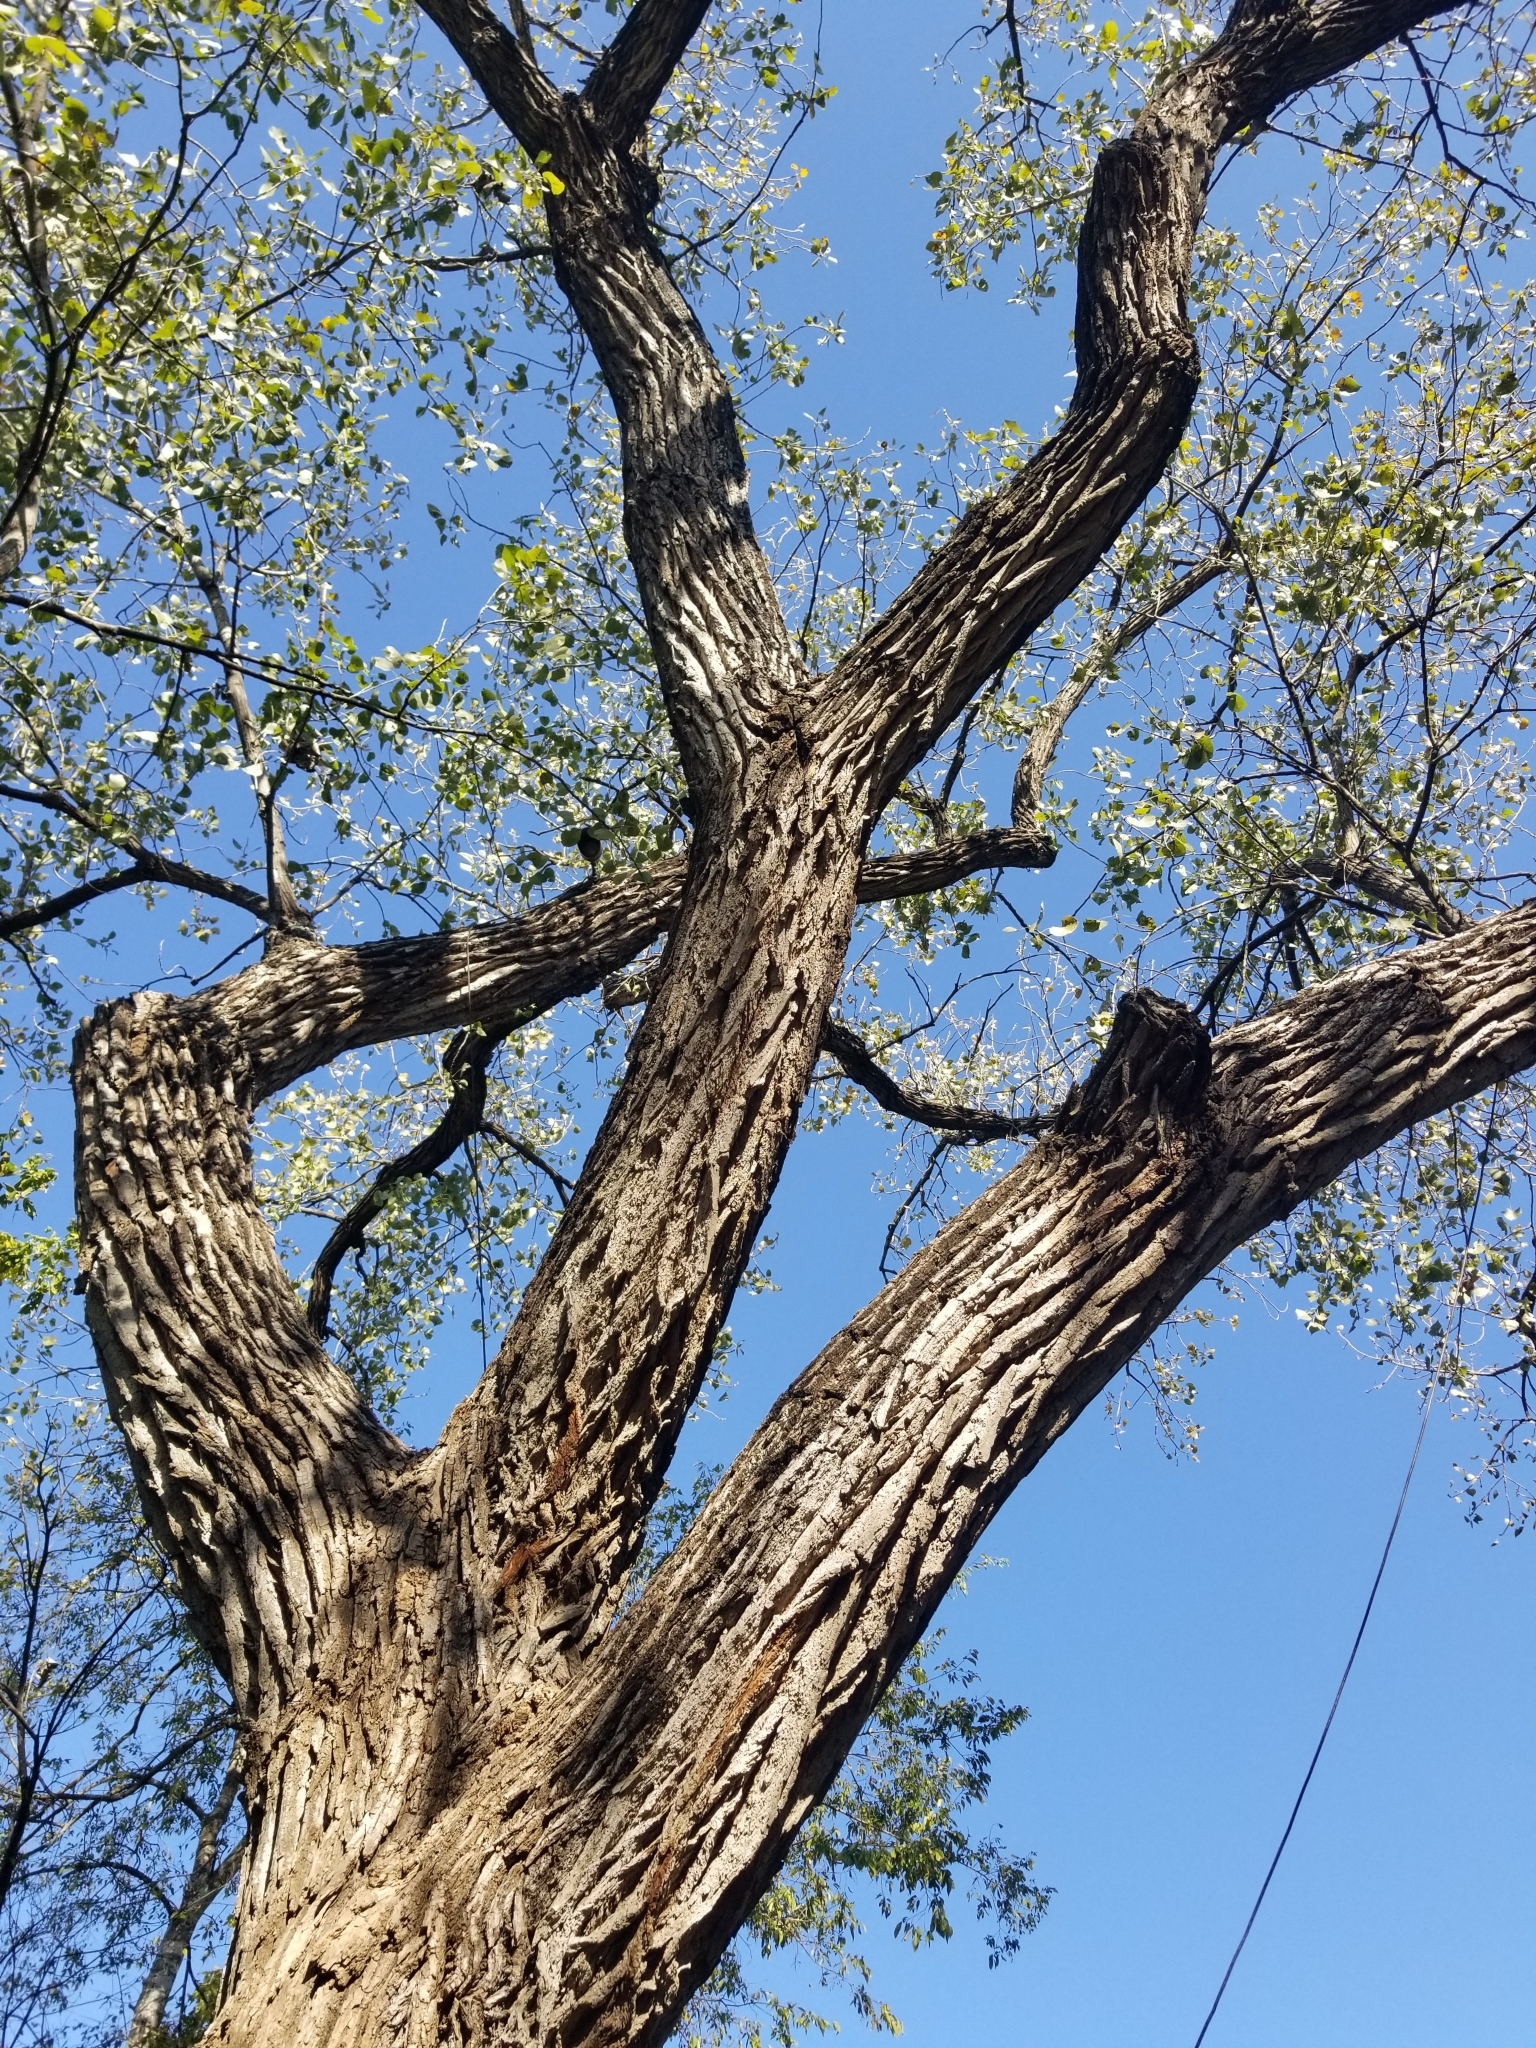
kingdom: Plantae
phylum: Tracheophyta
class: Magnoliopsida
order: Malpighiales
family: Salicaceae
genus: Populus
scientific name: Populus deltoides
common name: Eastern cottonwood
